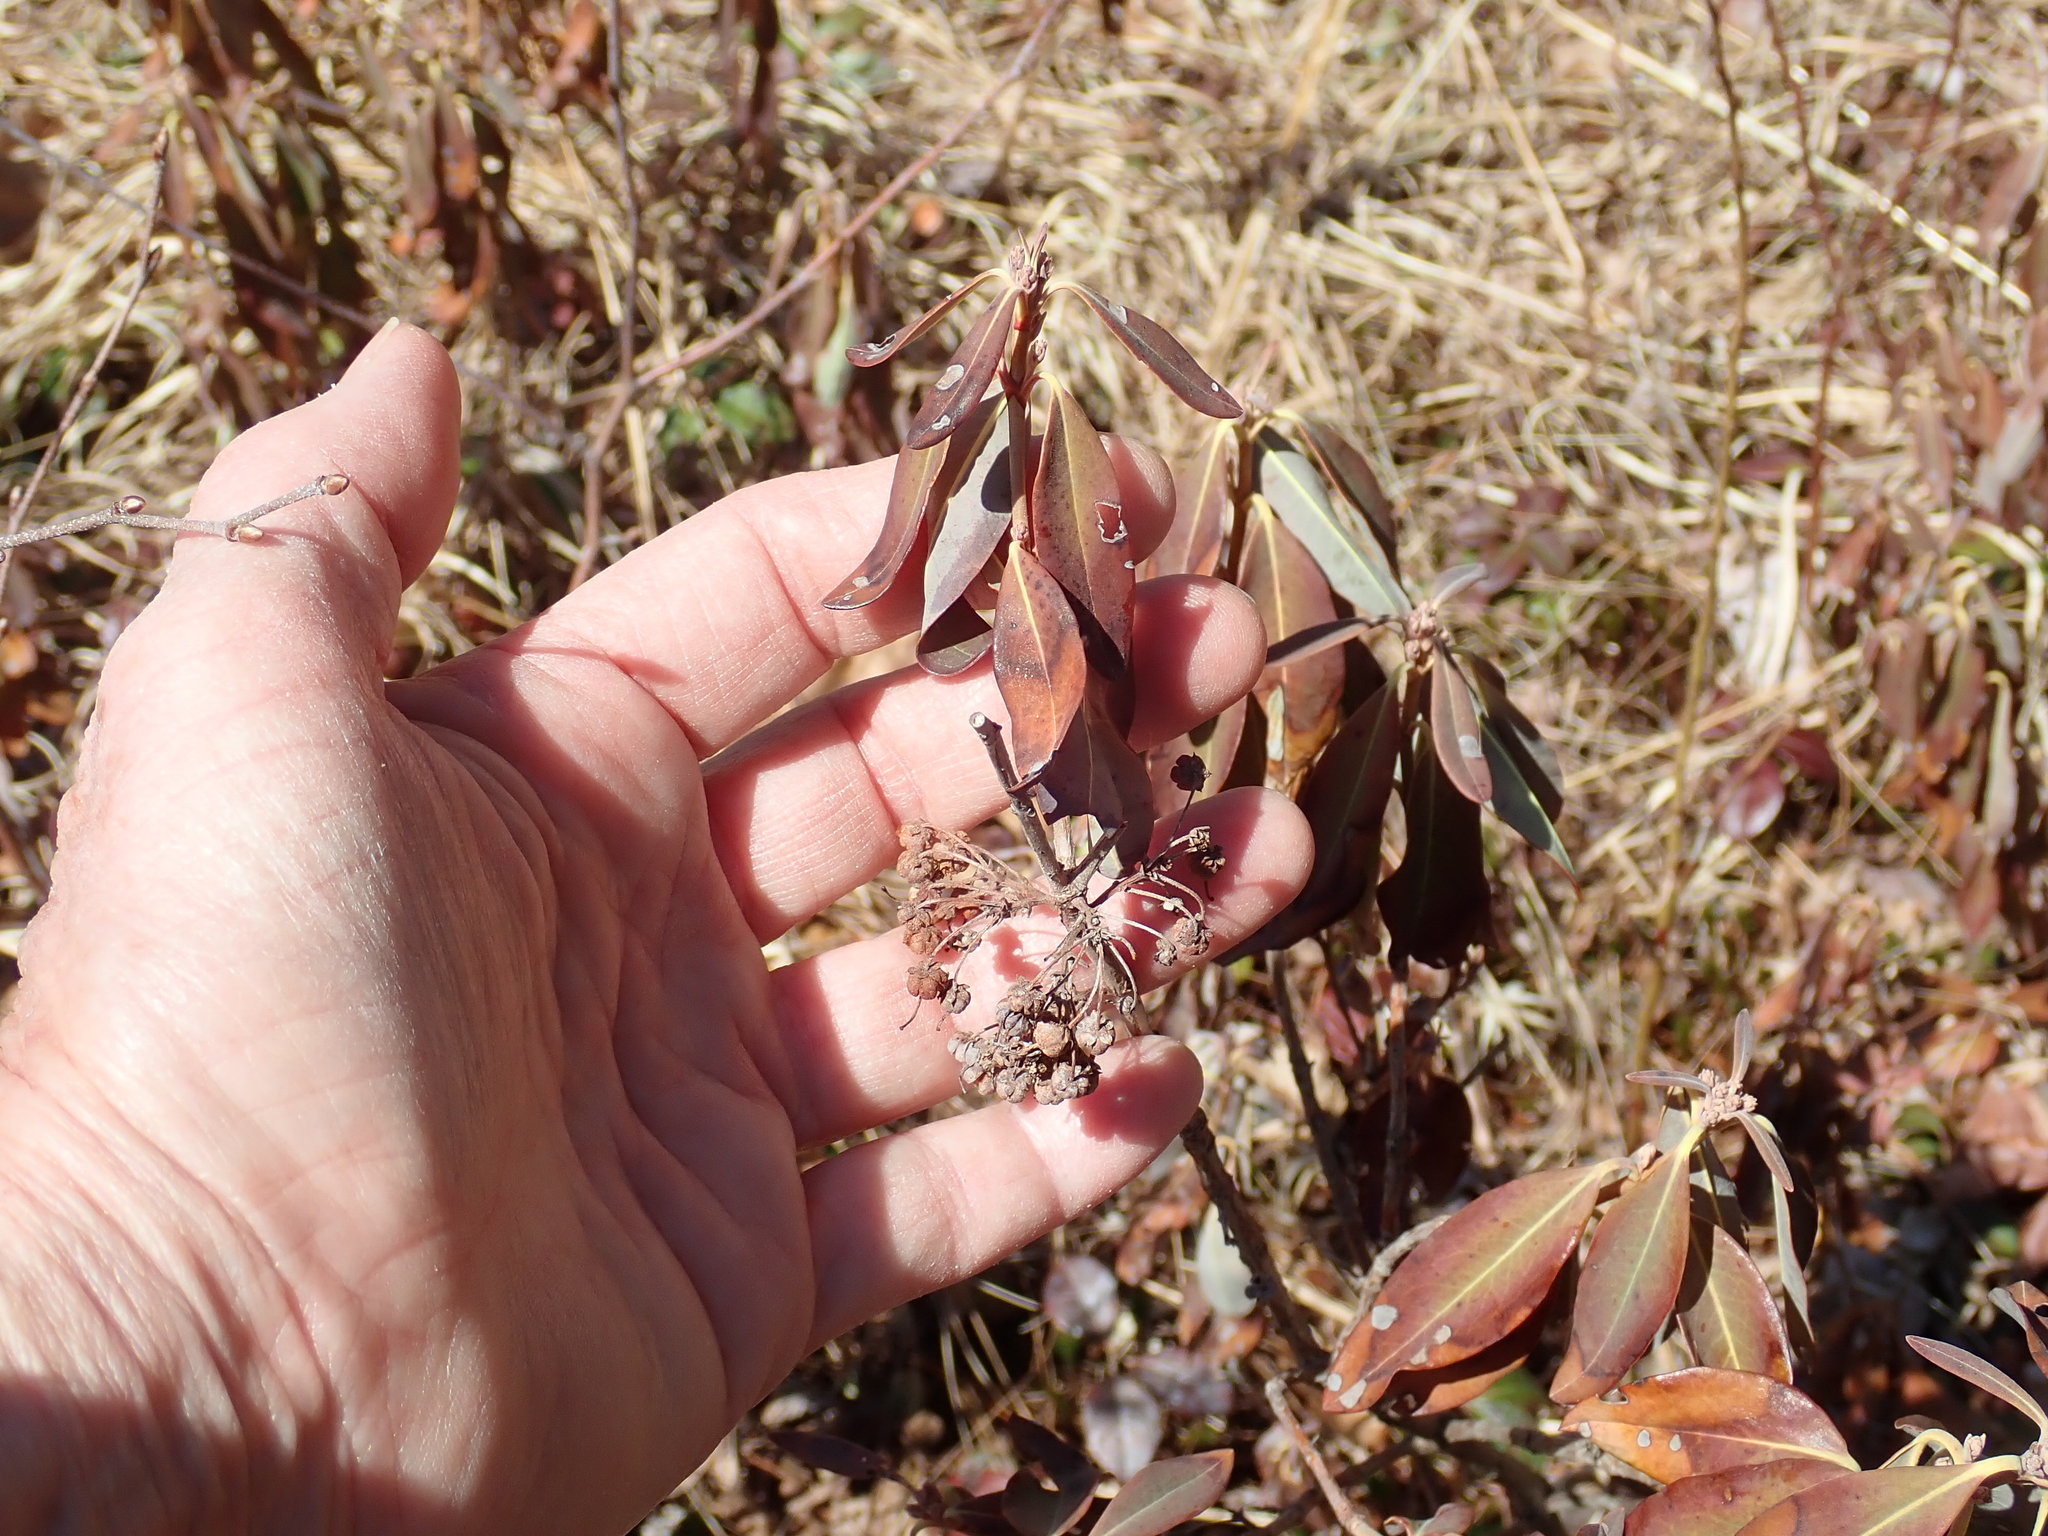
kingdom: Plantae
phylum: Tracheophyta
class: Magnoliopsida
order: Ericales
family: Ericaceae
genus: Kalmia
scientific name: Kalmia angustifolia
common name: Sheep-laurel
